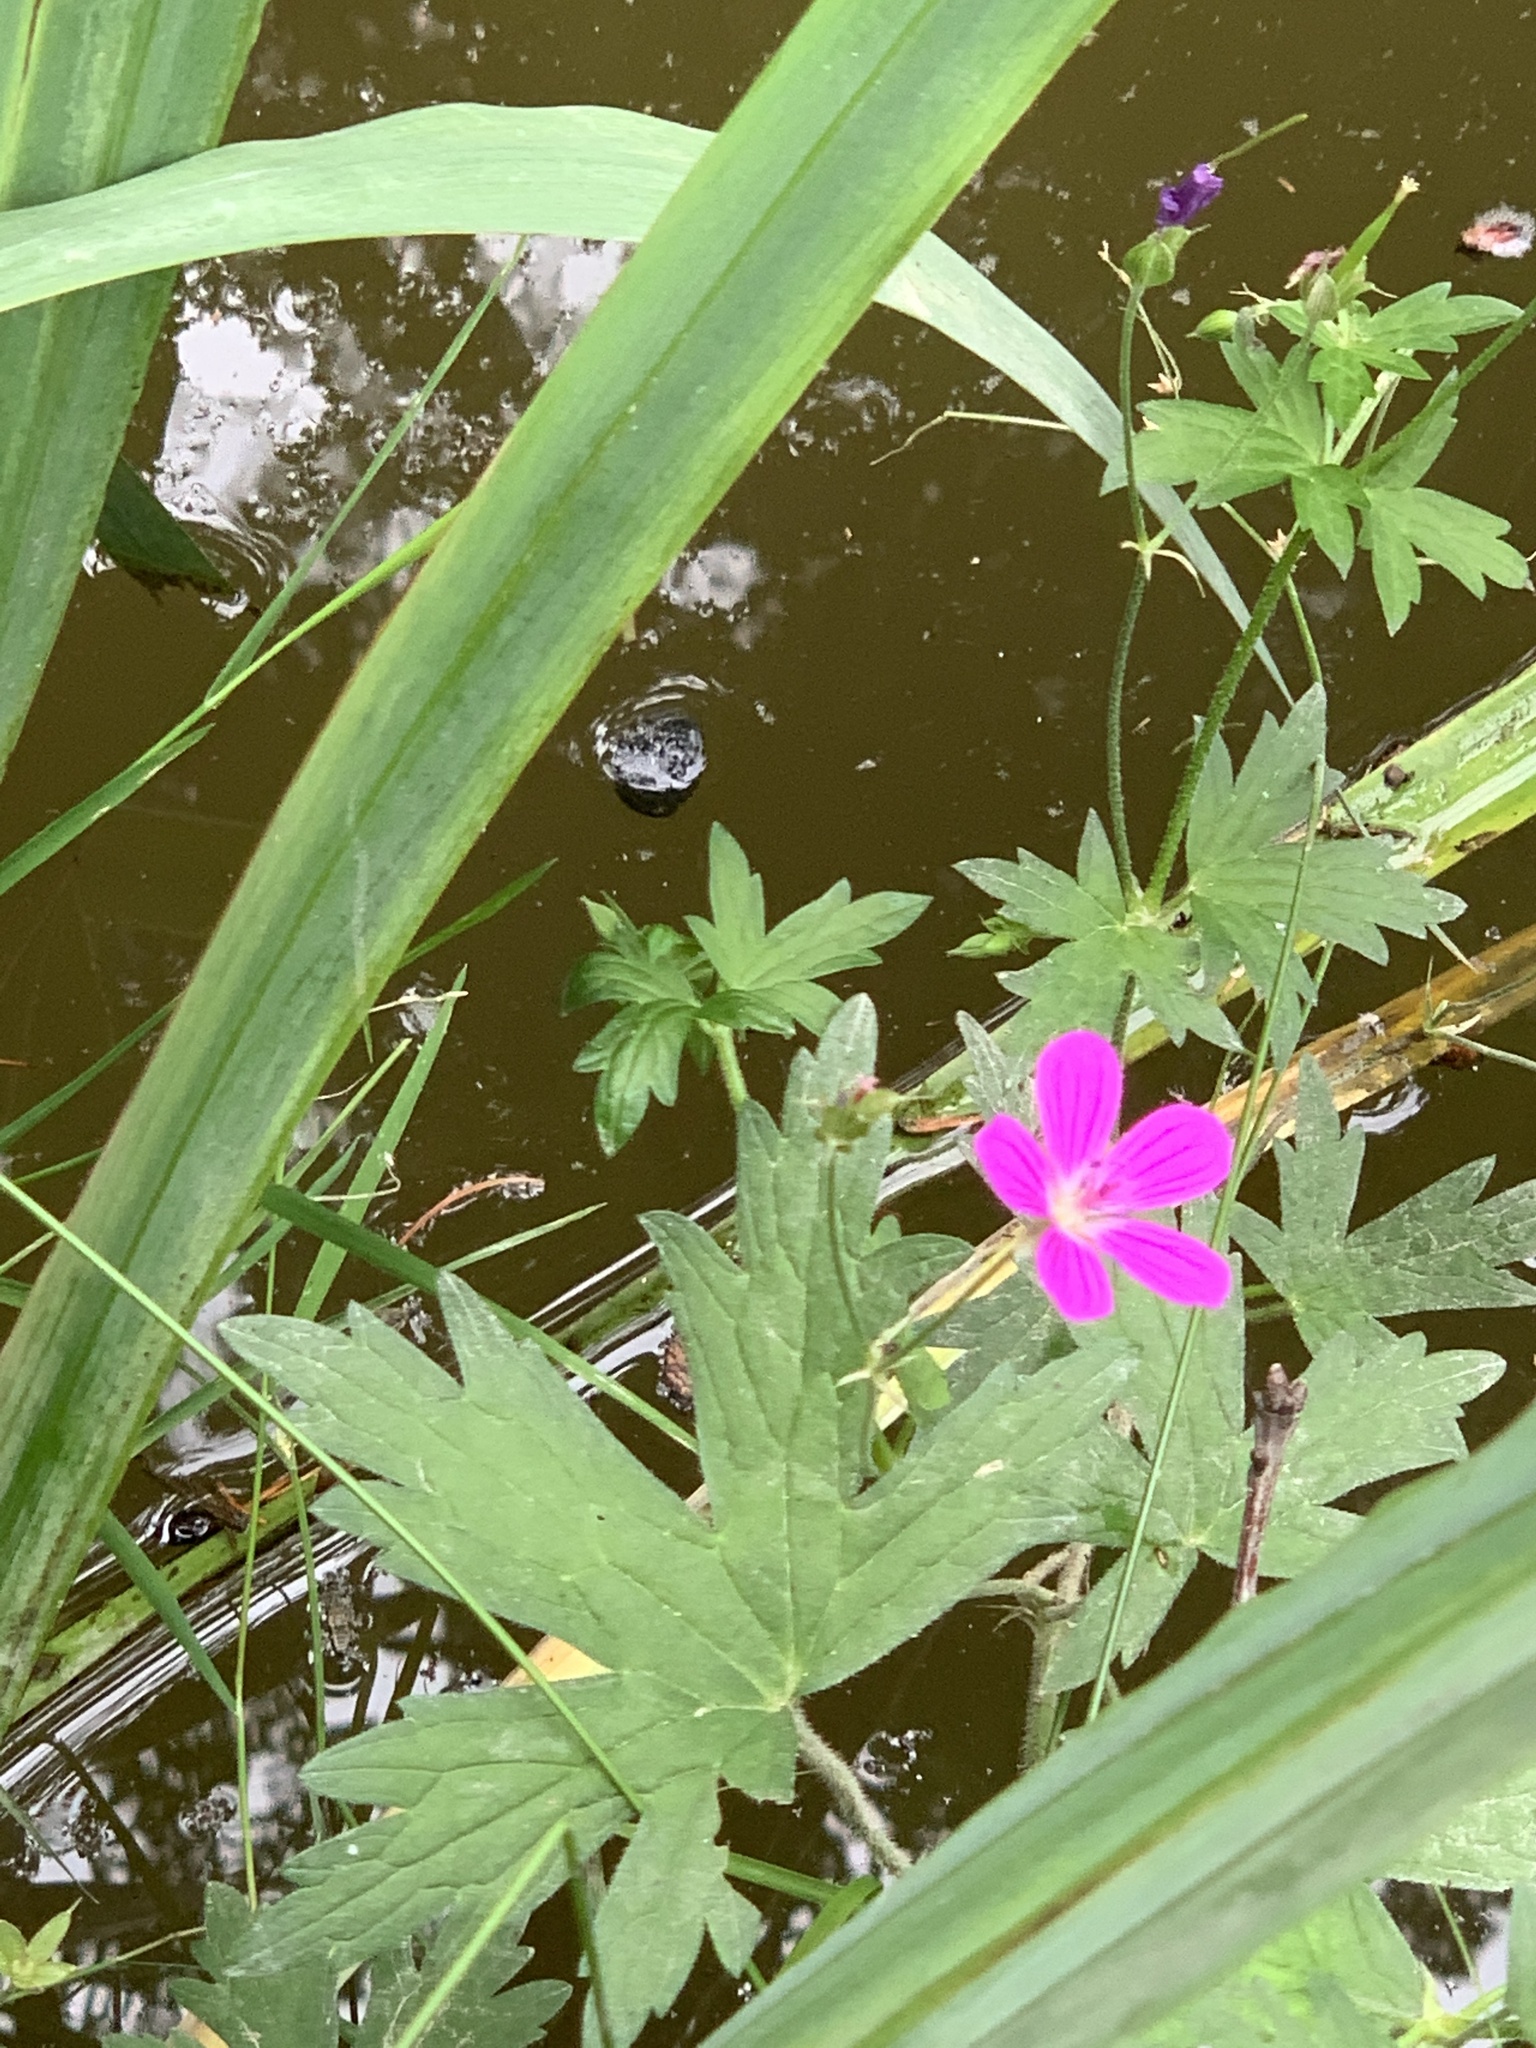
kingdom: Plantae
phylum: Tracheophyta
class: Magnoliopsida
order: Geraniales
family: Geraniaceae
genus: Geranium
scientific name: Geranium palustre
